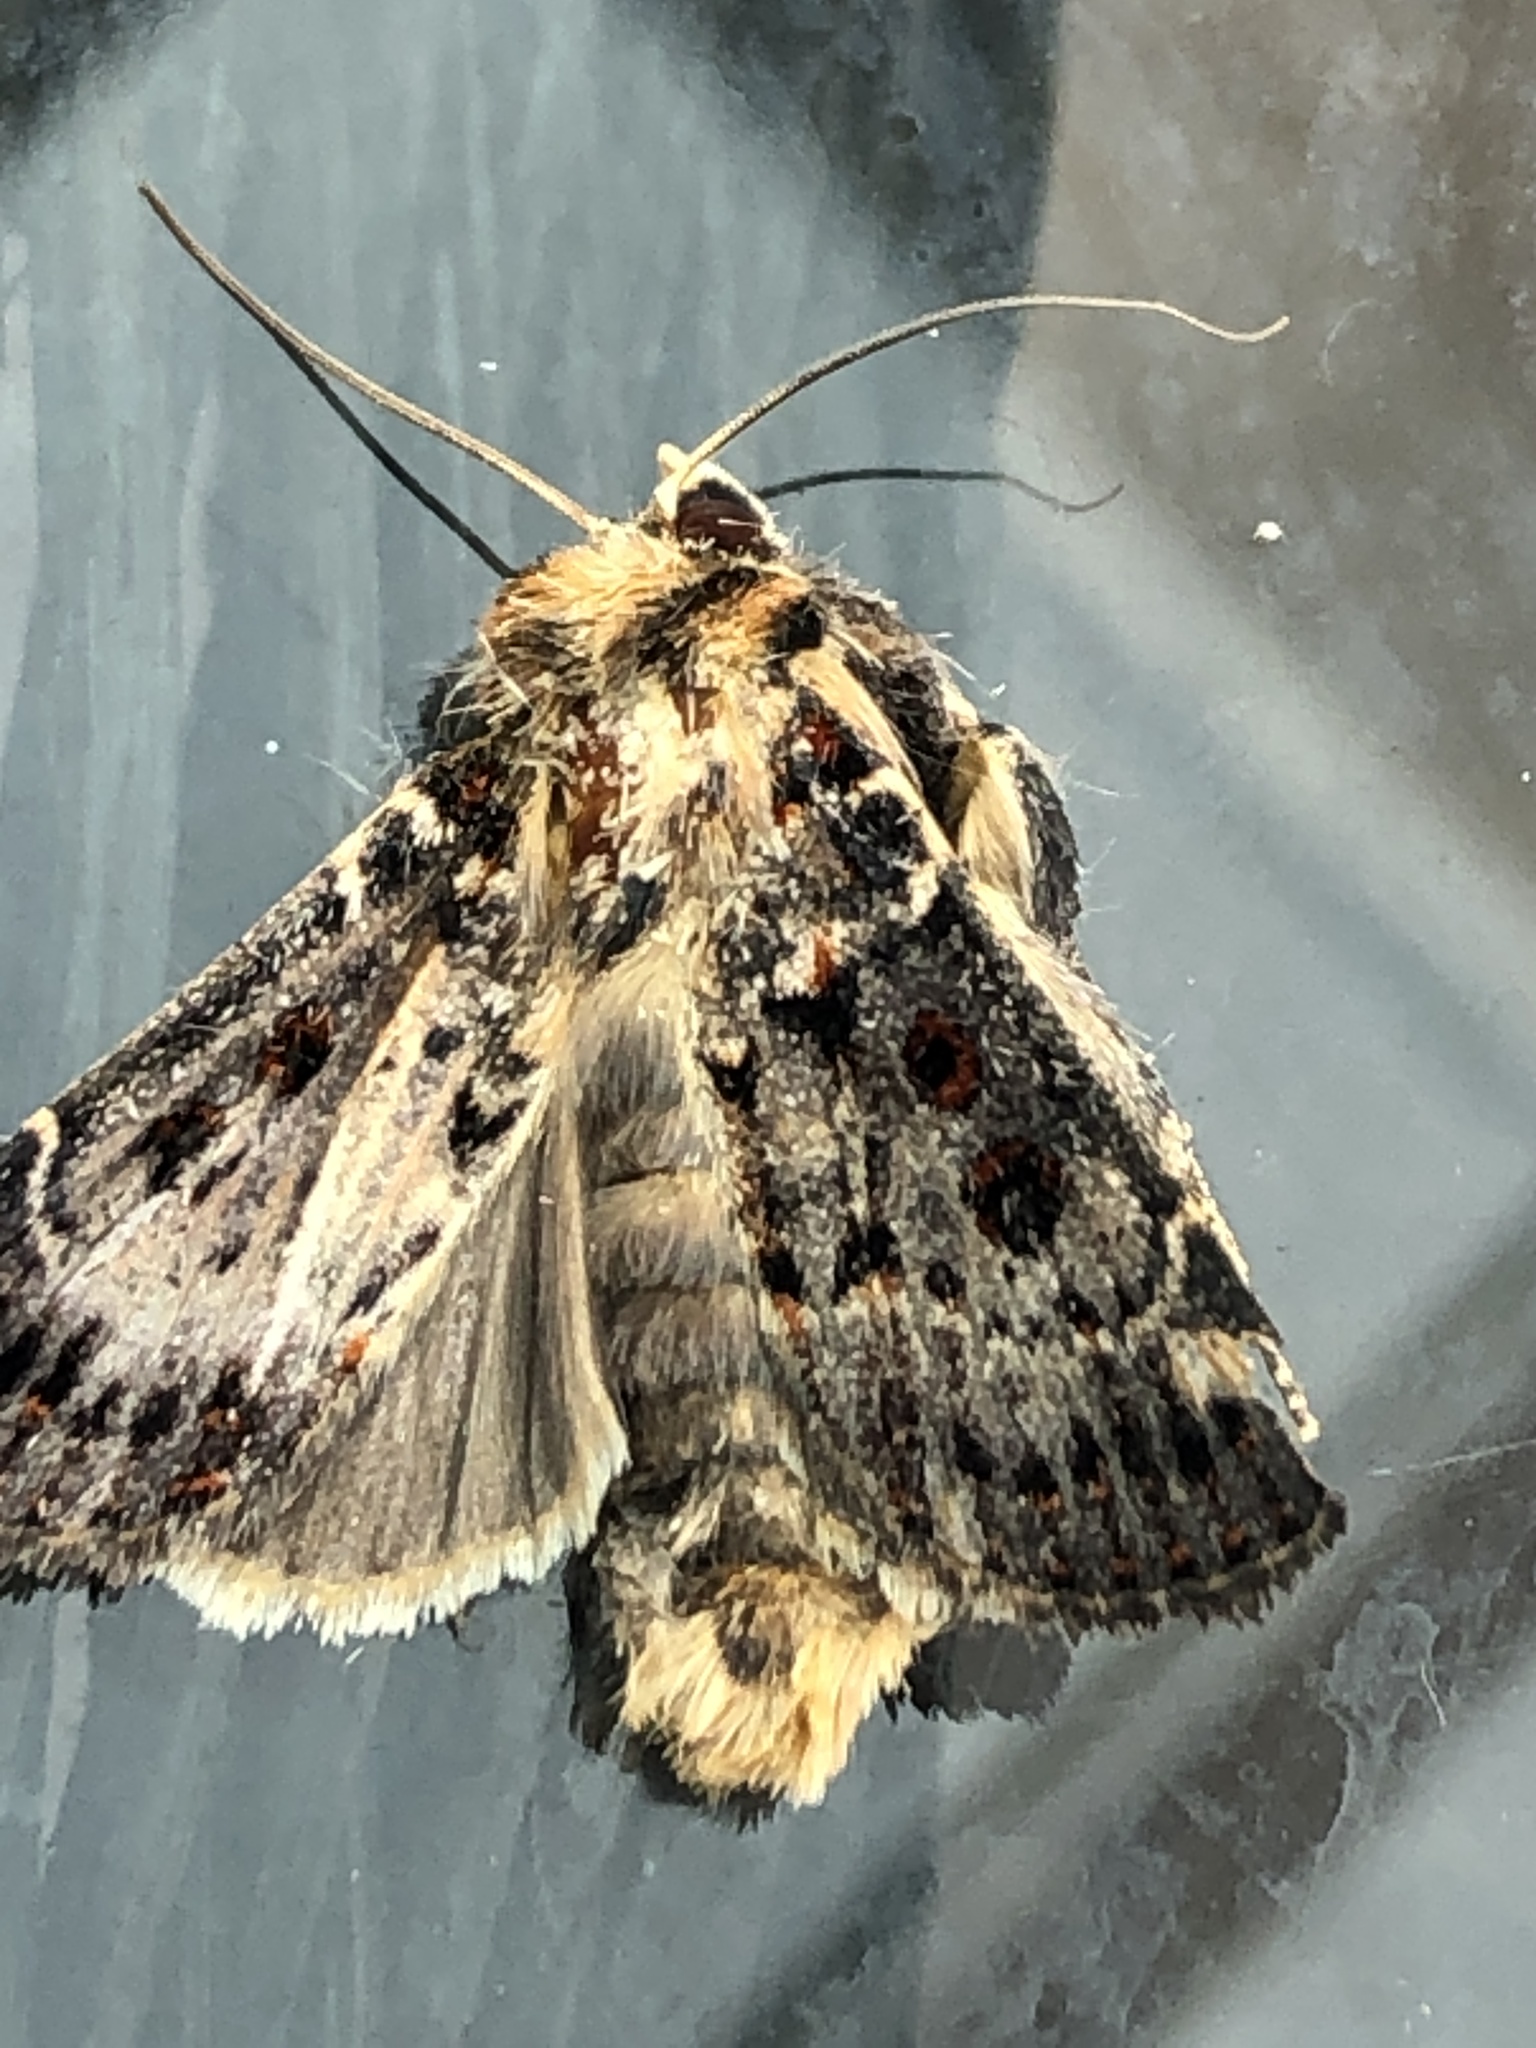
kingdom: Animalia
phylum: Arthropoda
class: Insecta
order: Lepidoptera
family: Noctuidae
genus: Proteuxoa
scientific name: Proteuxoa sanguinipuncta
